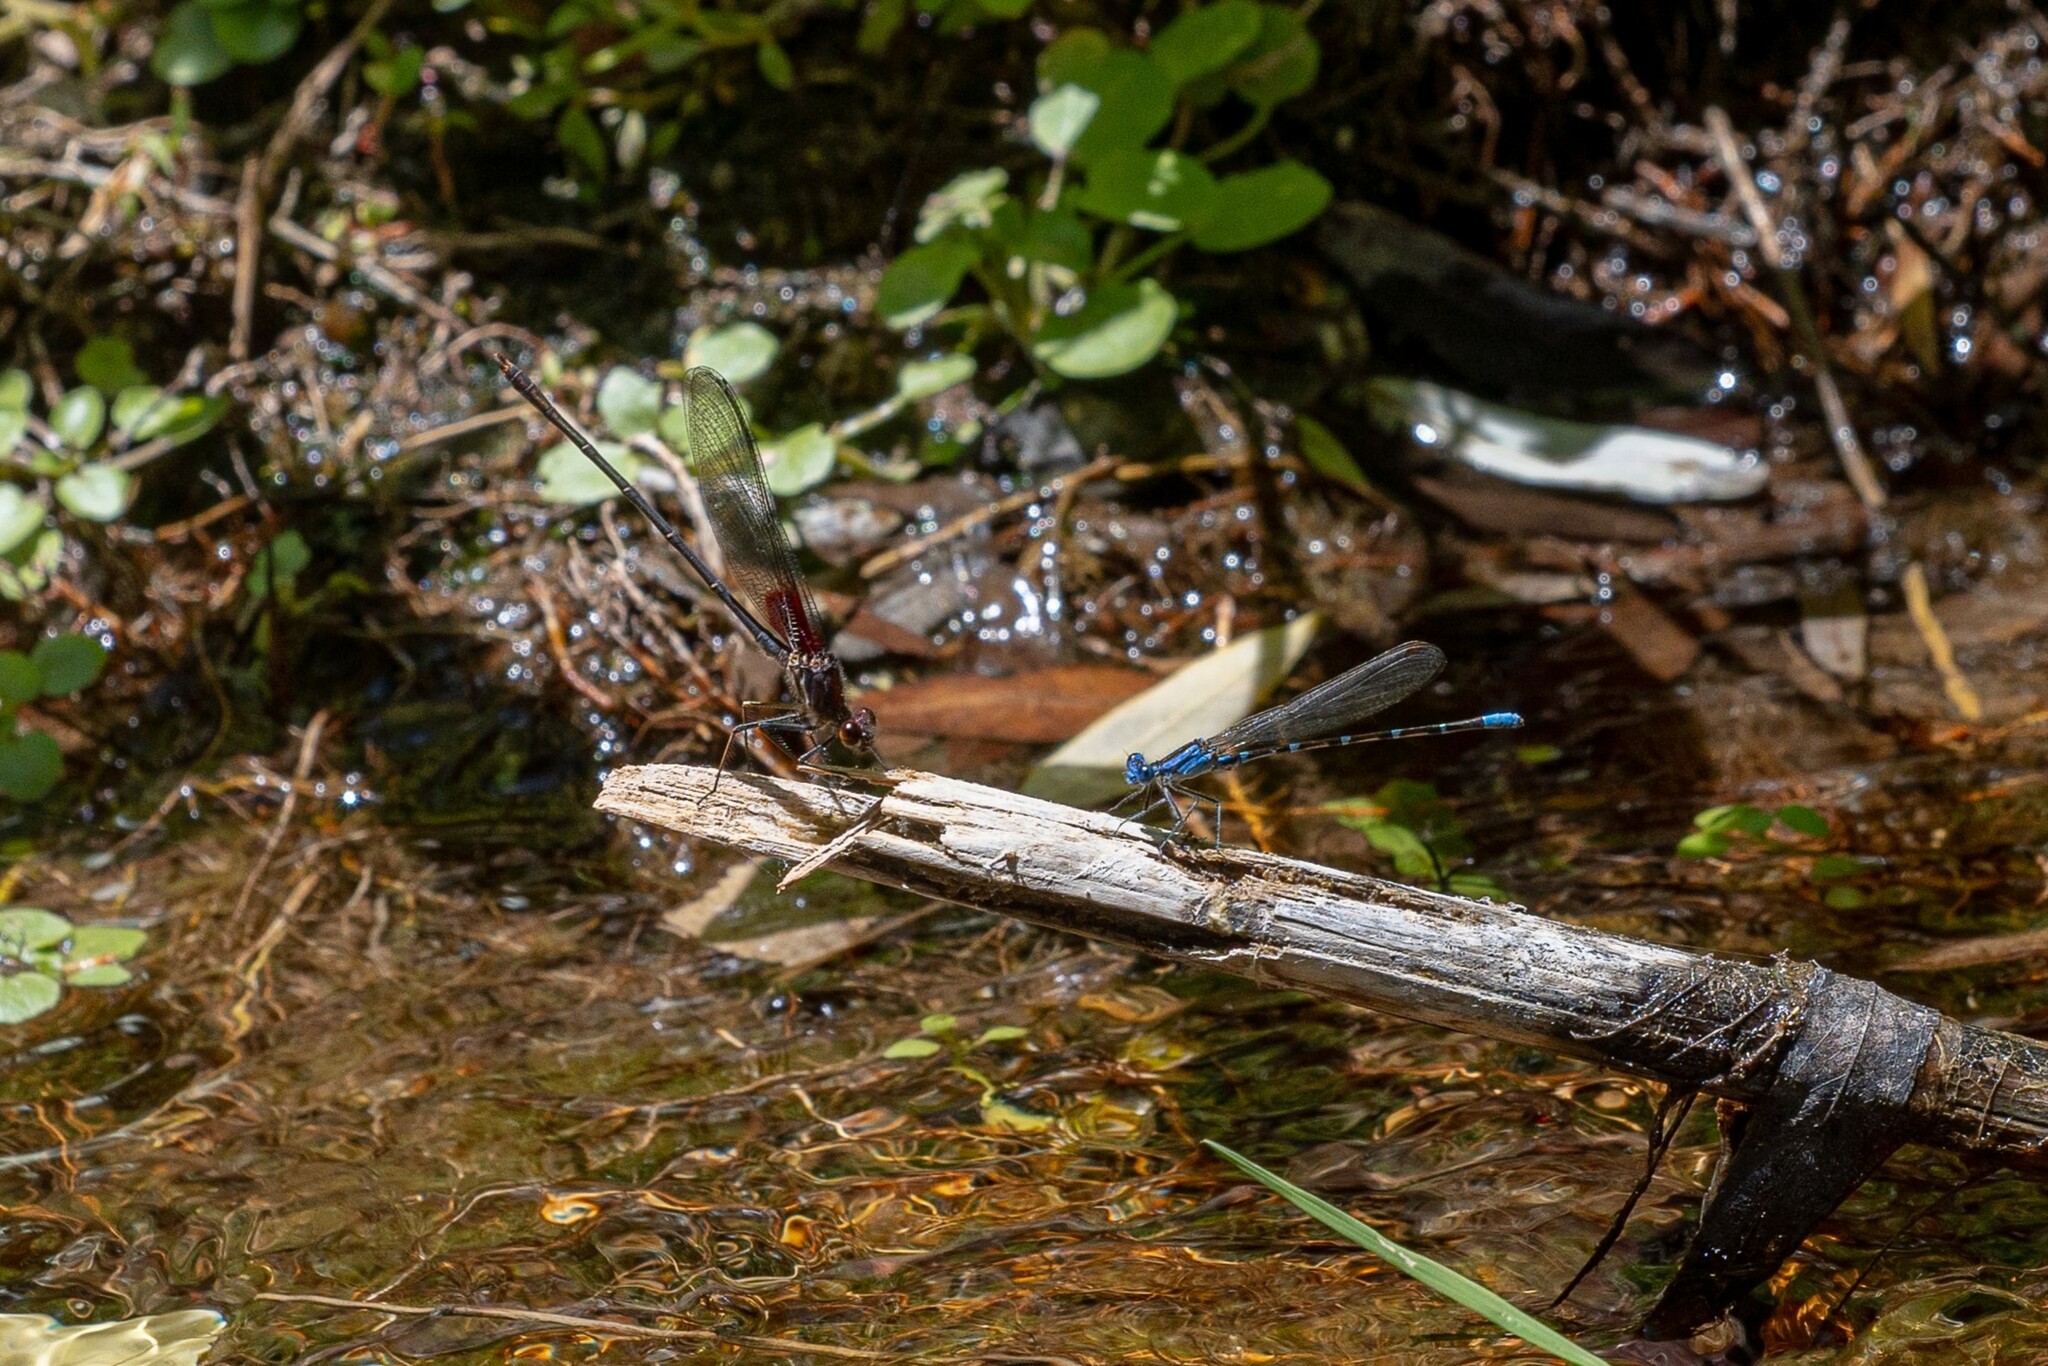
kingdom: Animalia
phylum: Arthropoda
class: Insecta
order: Odonata
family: Coenagrionidae
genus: Argia
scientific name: Argia sedula
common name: Blue-ringed dancer
